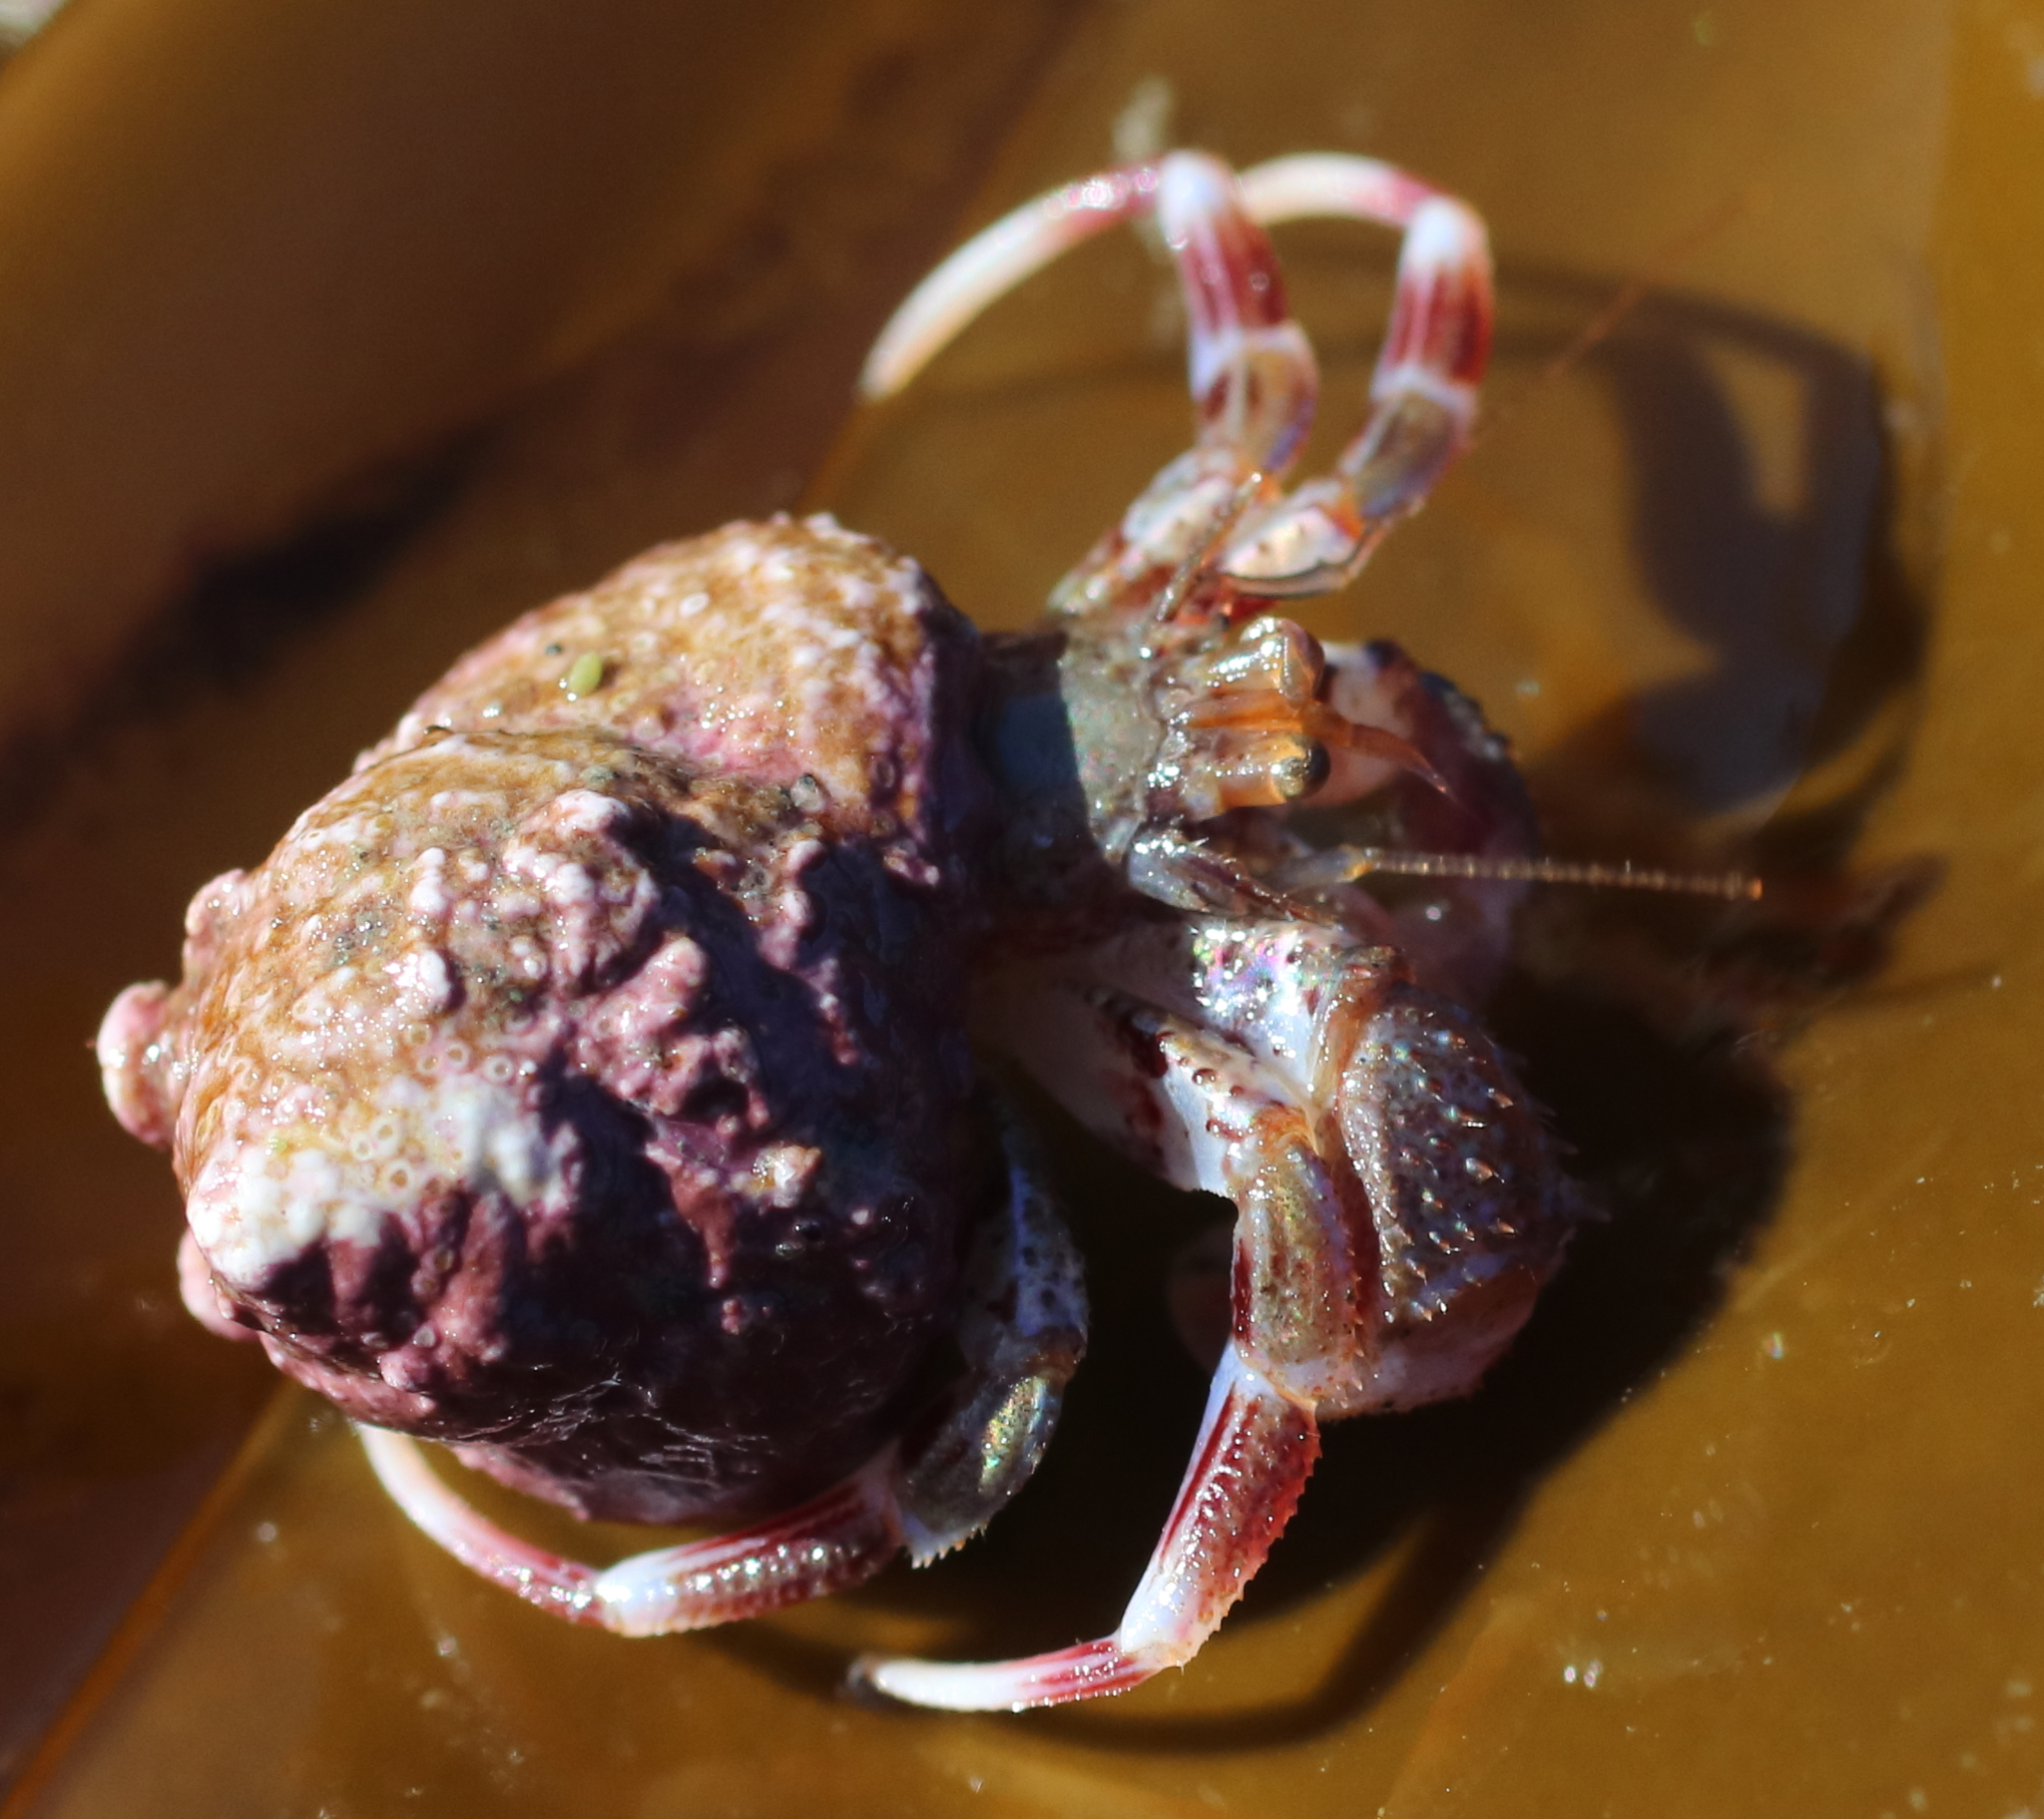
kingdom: Animalia
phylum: Arthropoda
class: Malacostraca
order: Decapoda
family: Paguridae
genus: Pagurus
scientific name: Pagurus ochotensis
